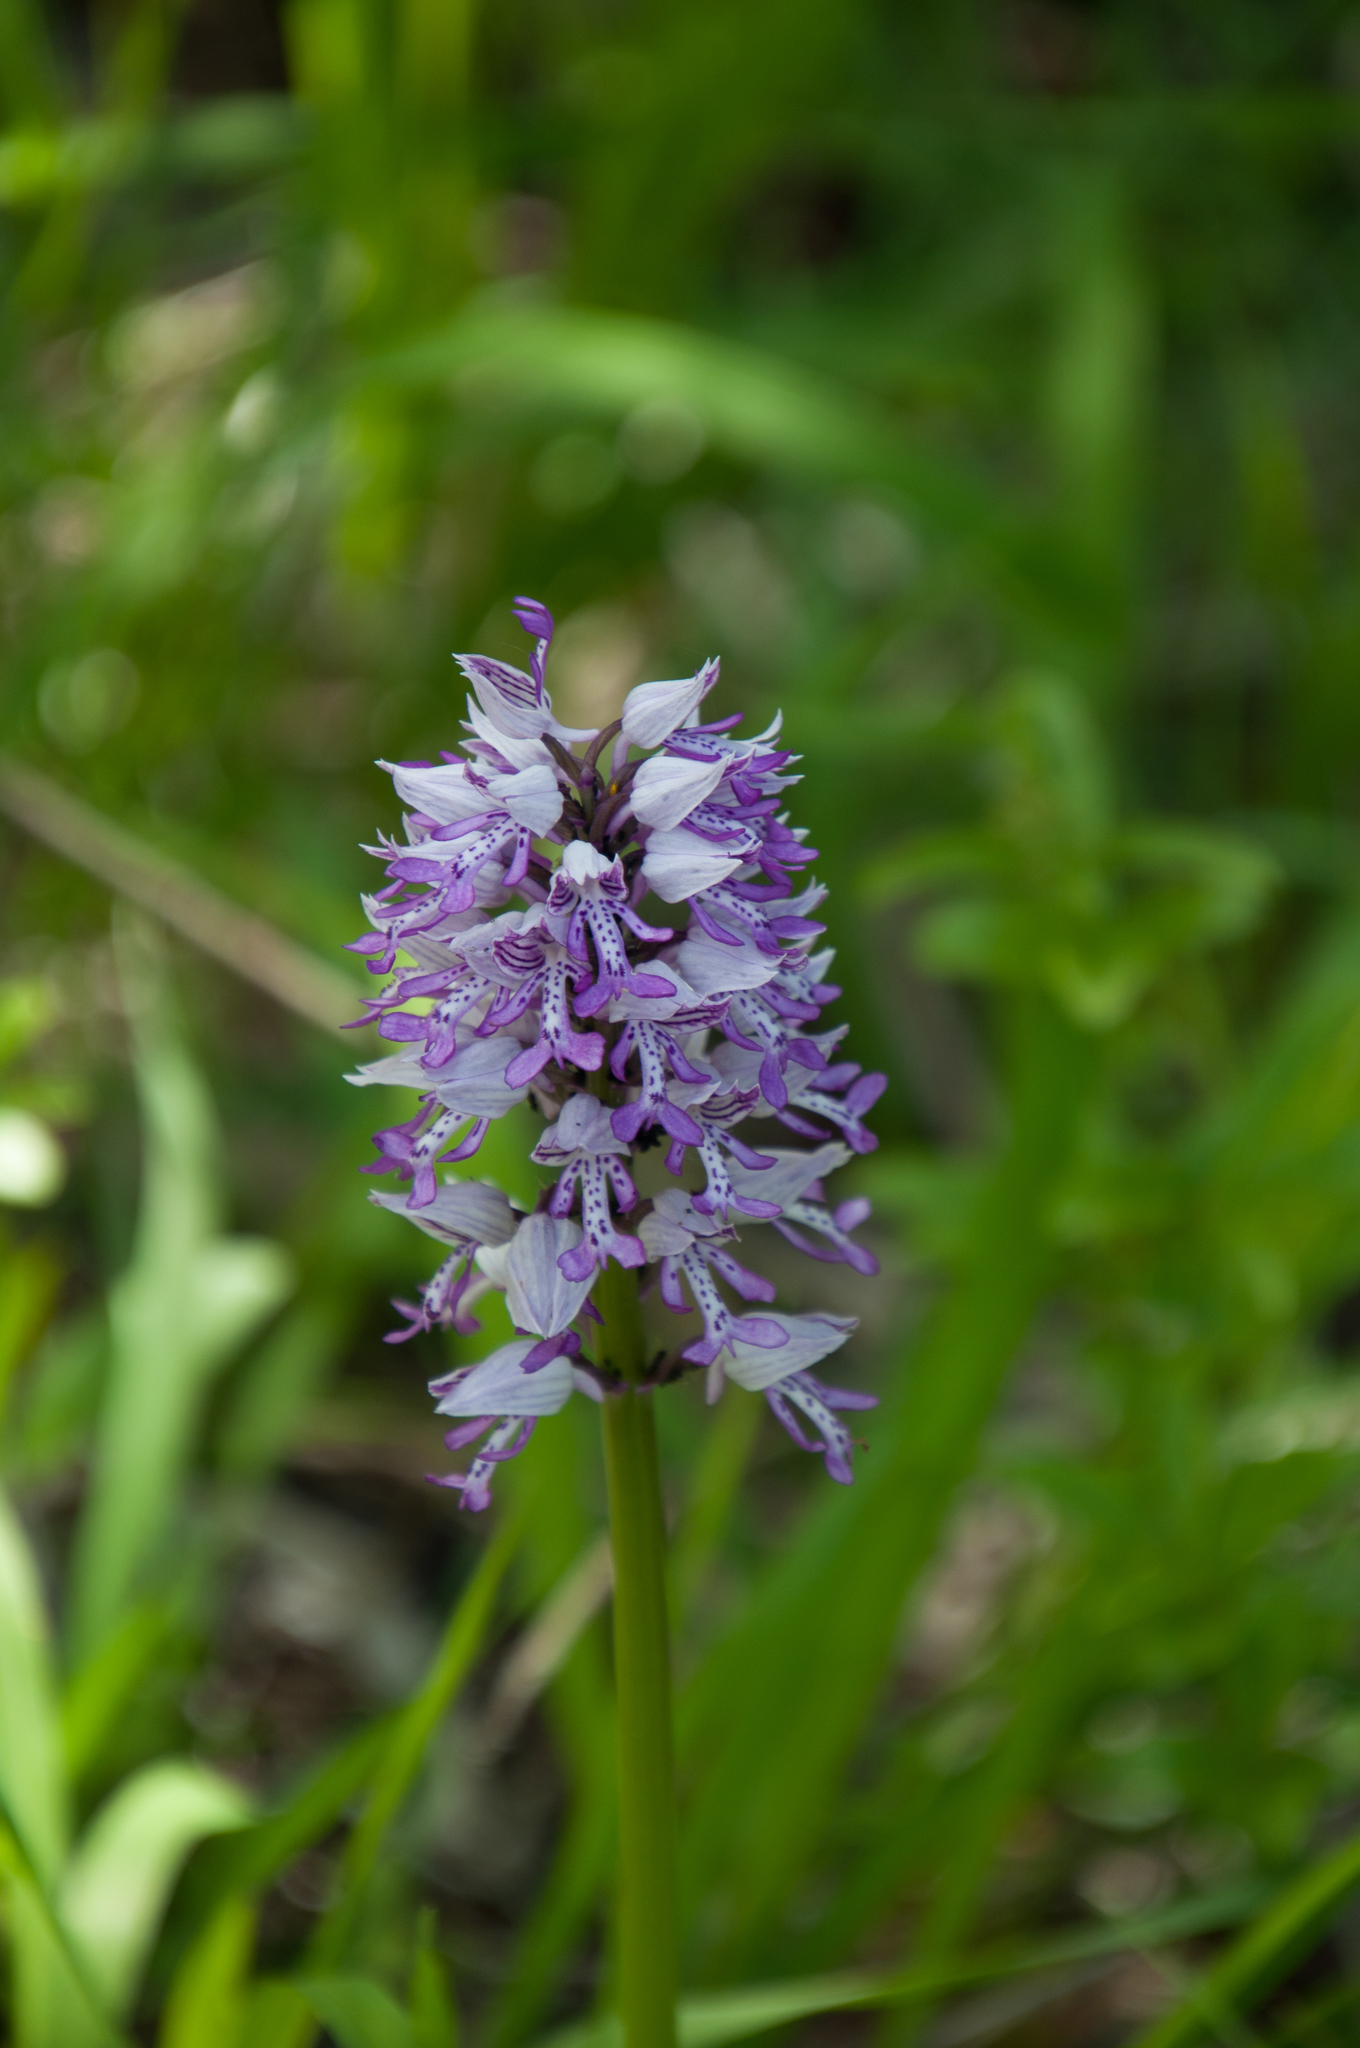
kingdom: Plantae
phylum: Tracheophyta
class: Liliopsida
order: Asparagales
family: Orchidaceae
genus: Orchis
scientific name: Orchis militaris
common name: Military orchid
